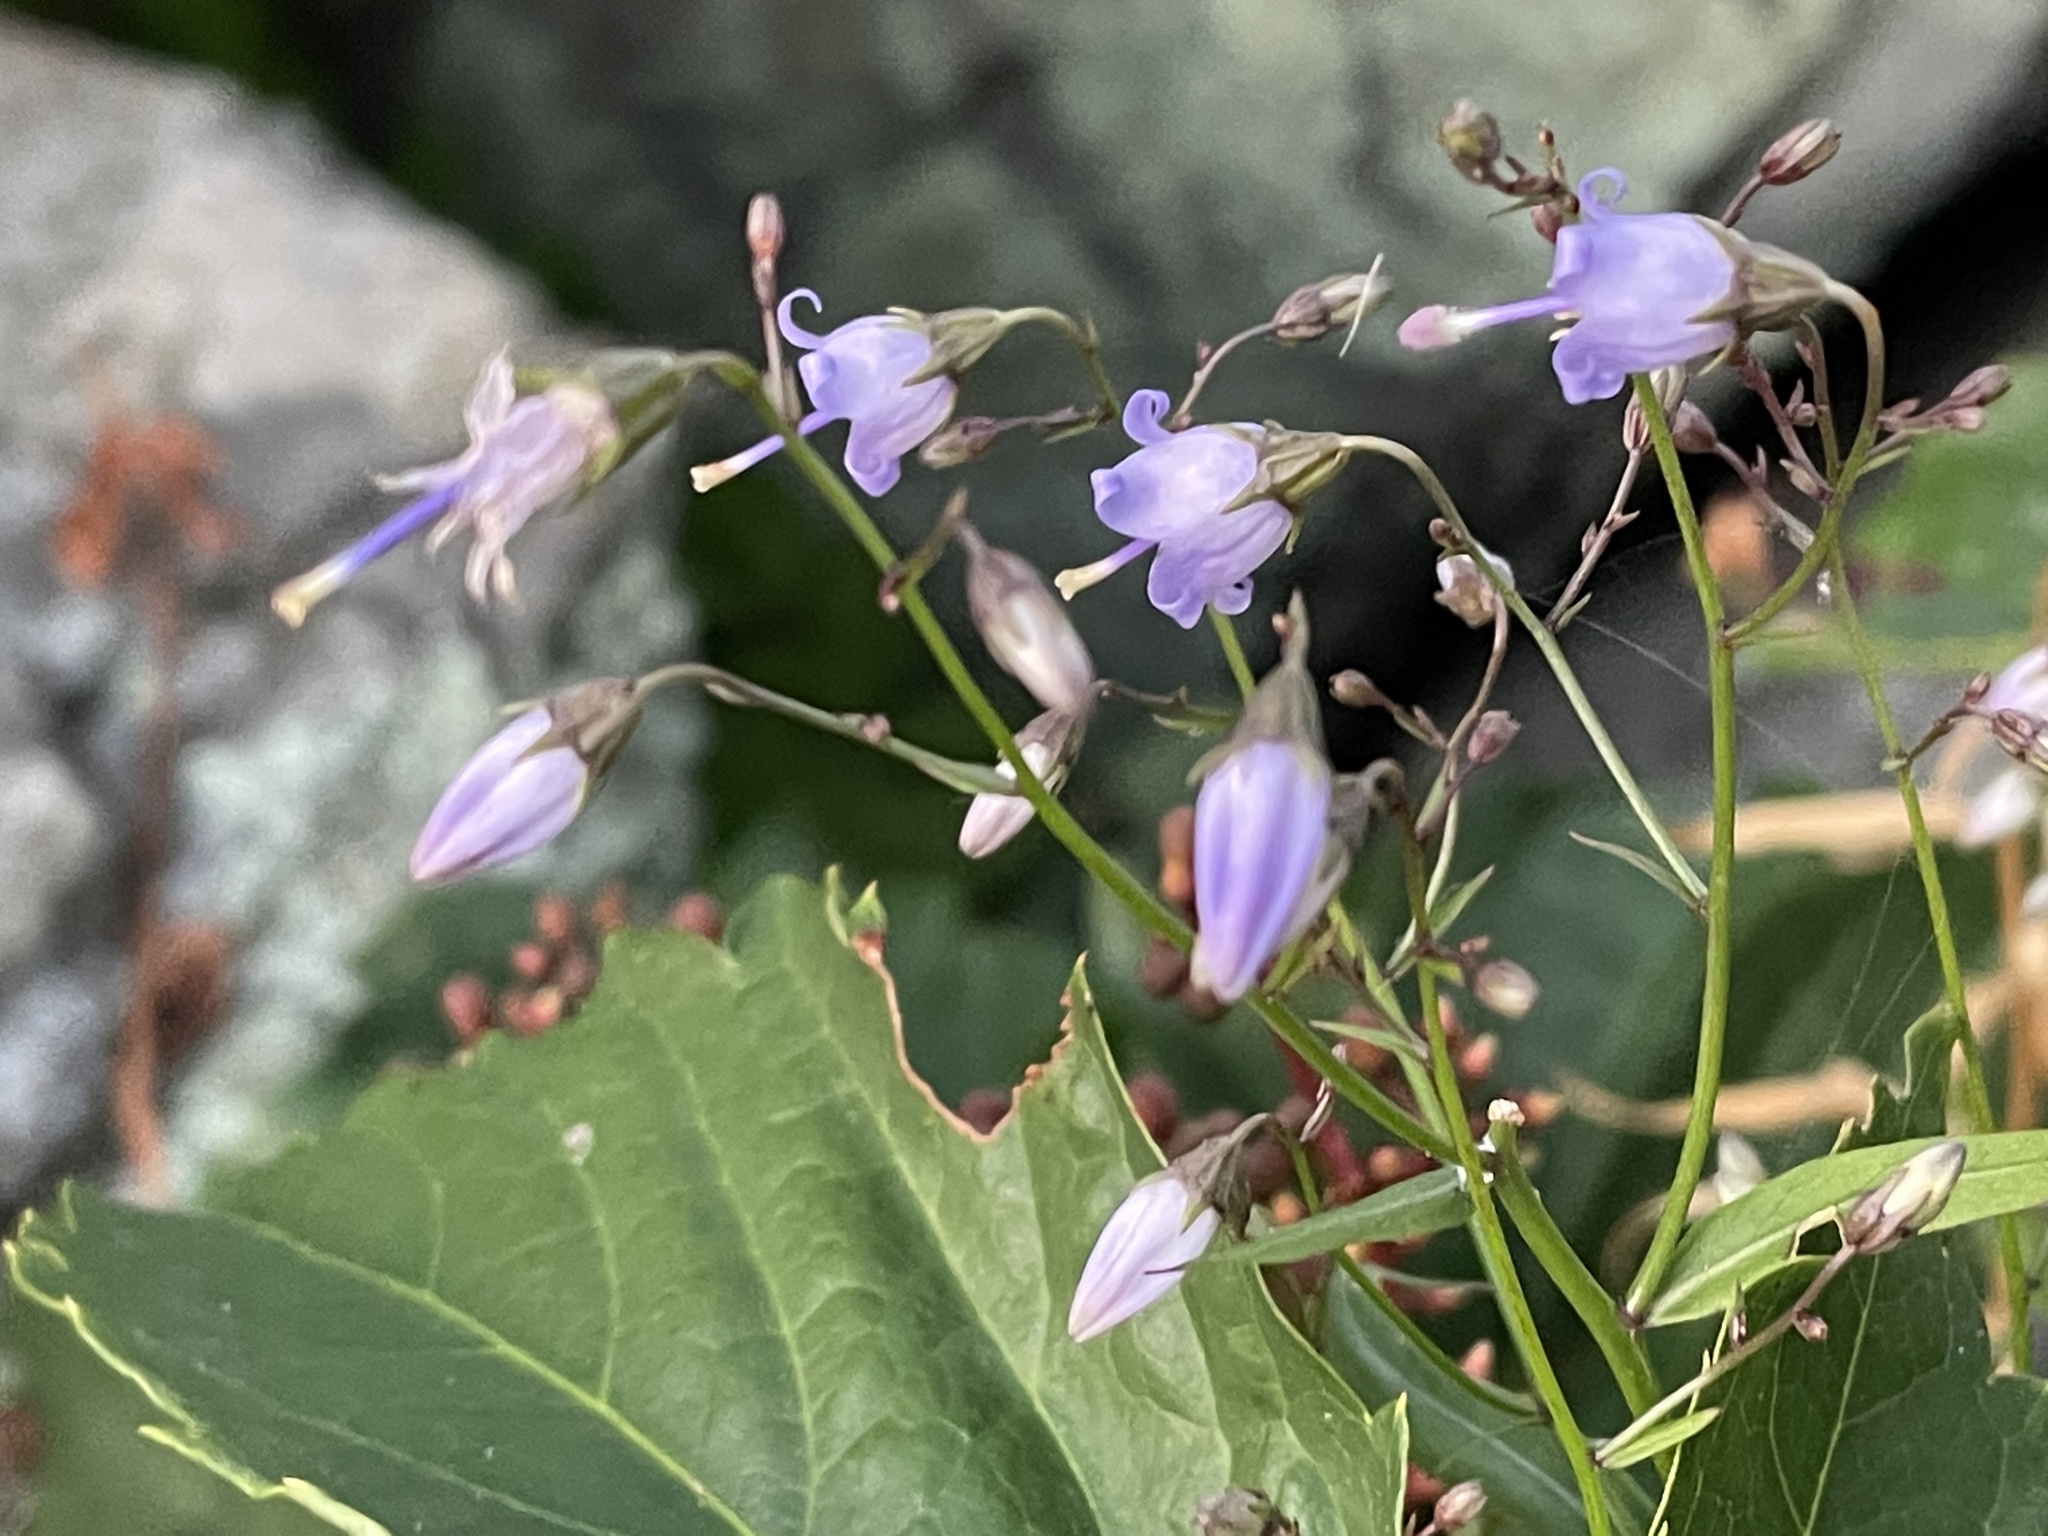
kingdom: Plantae
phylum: Tracheophyta
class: Magnoliopsida
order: Asterales
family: Campanulaceae
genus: Campanula
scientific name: Campanula divaricata
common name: Appalachian bellflower
